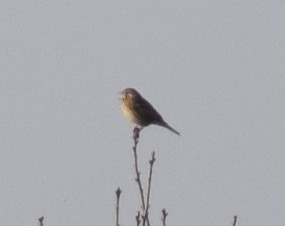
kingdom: Animalia
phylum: Chordata
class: Aves
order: Passeriformes
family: Emberizidae
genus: Emberiza
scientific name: Emberiza calandra
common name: Corn bunting
